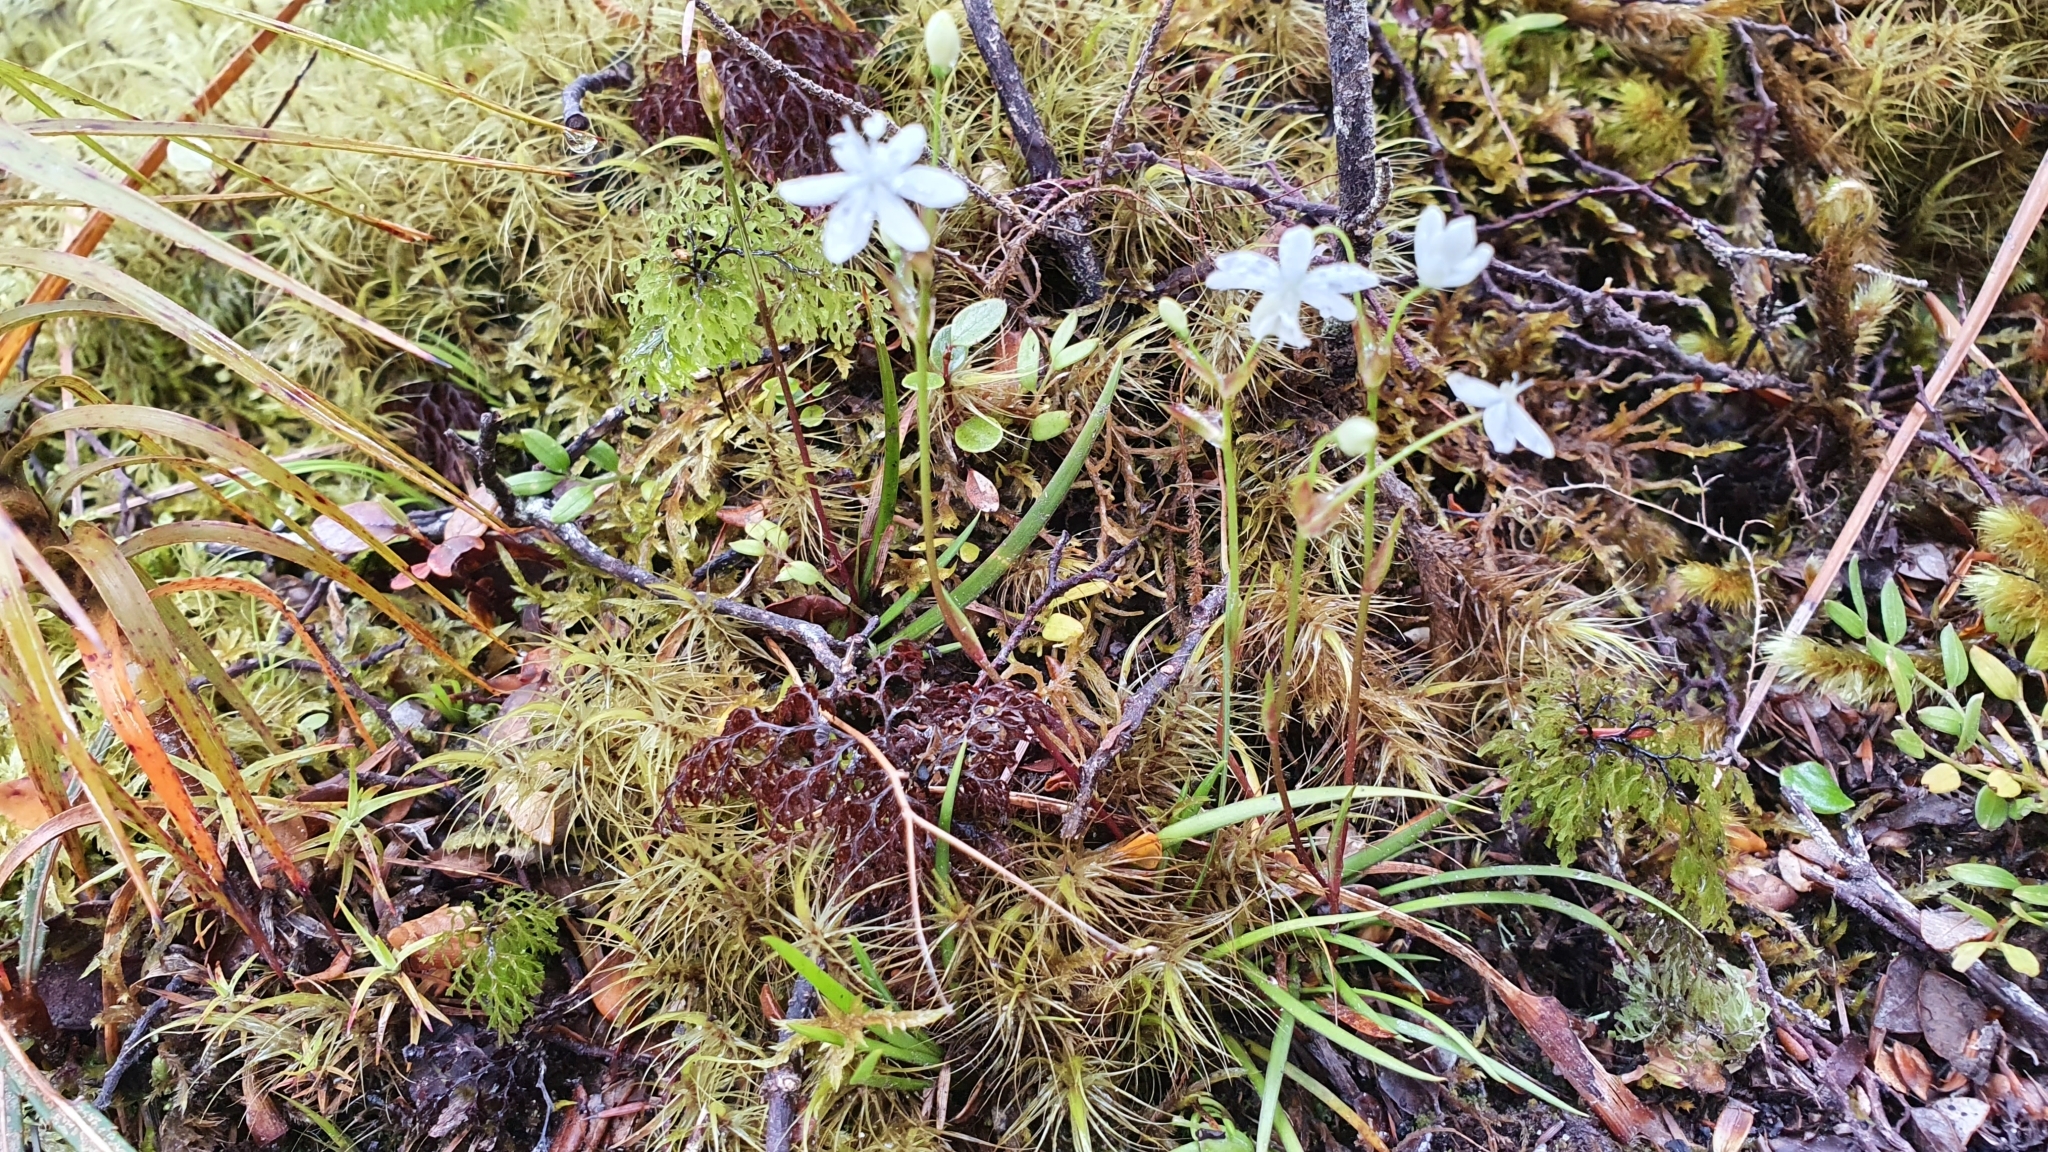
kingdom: Plantae
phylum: Tracheophyta
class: Liliopsida
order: Asparagales
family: Iridaceae
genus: Libertia
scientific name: Libertia micrantha
